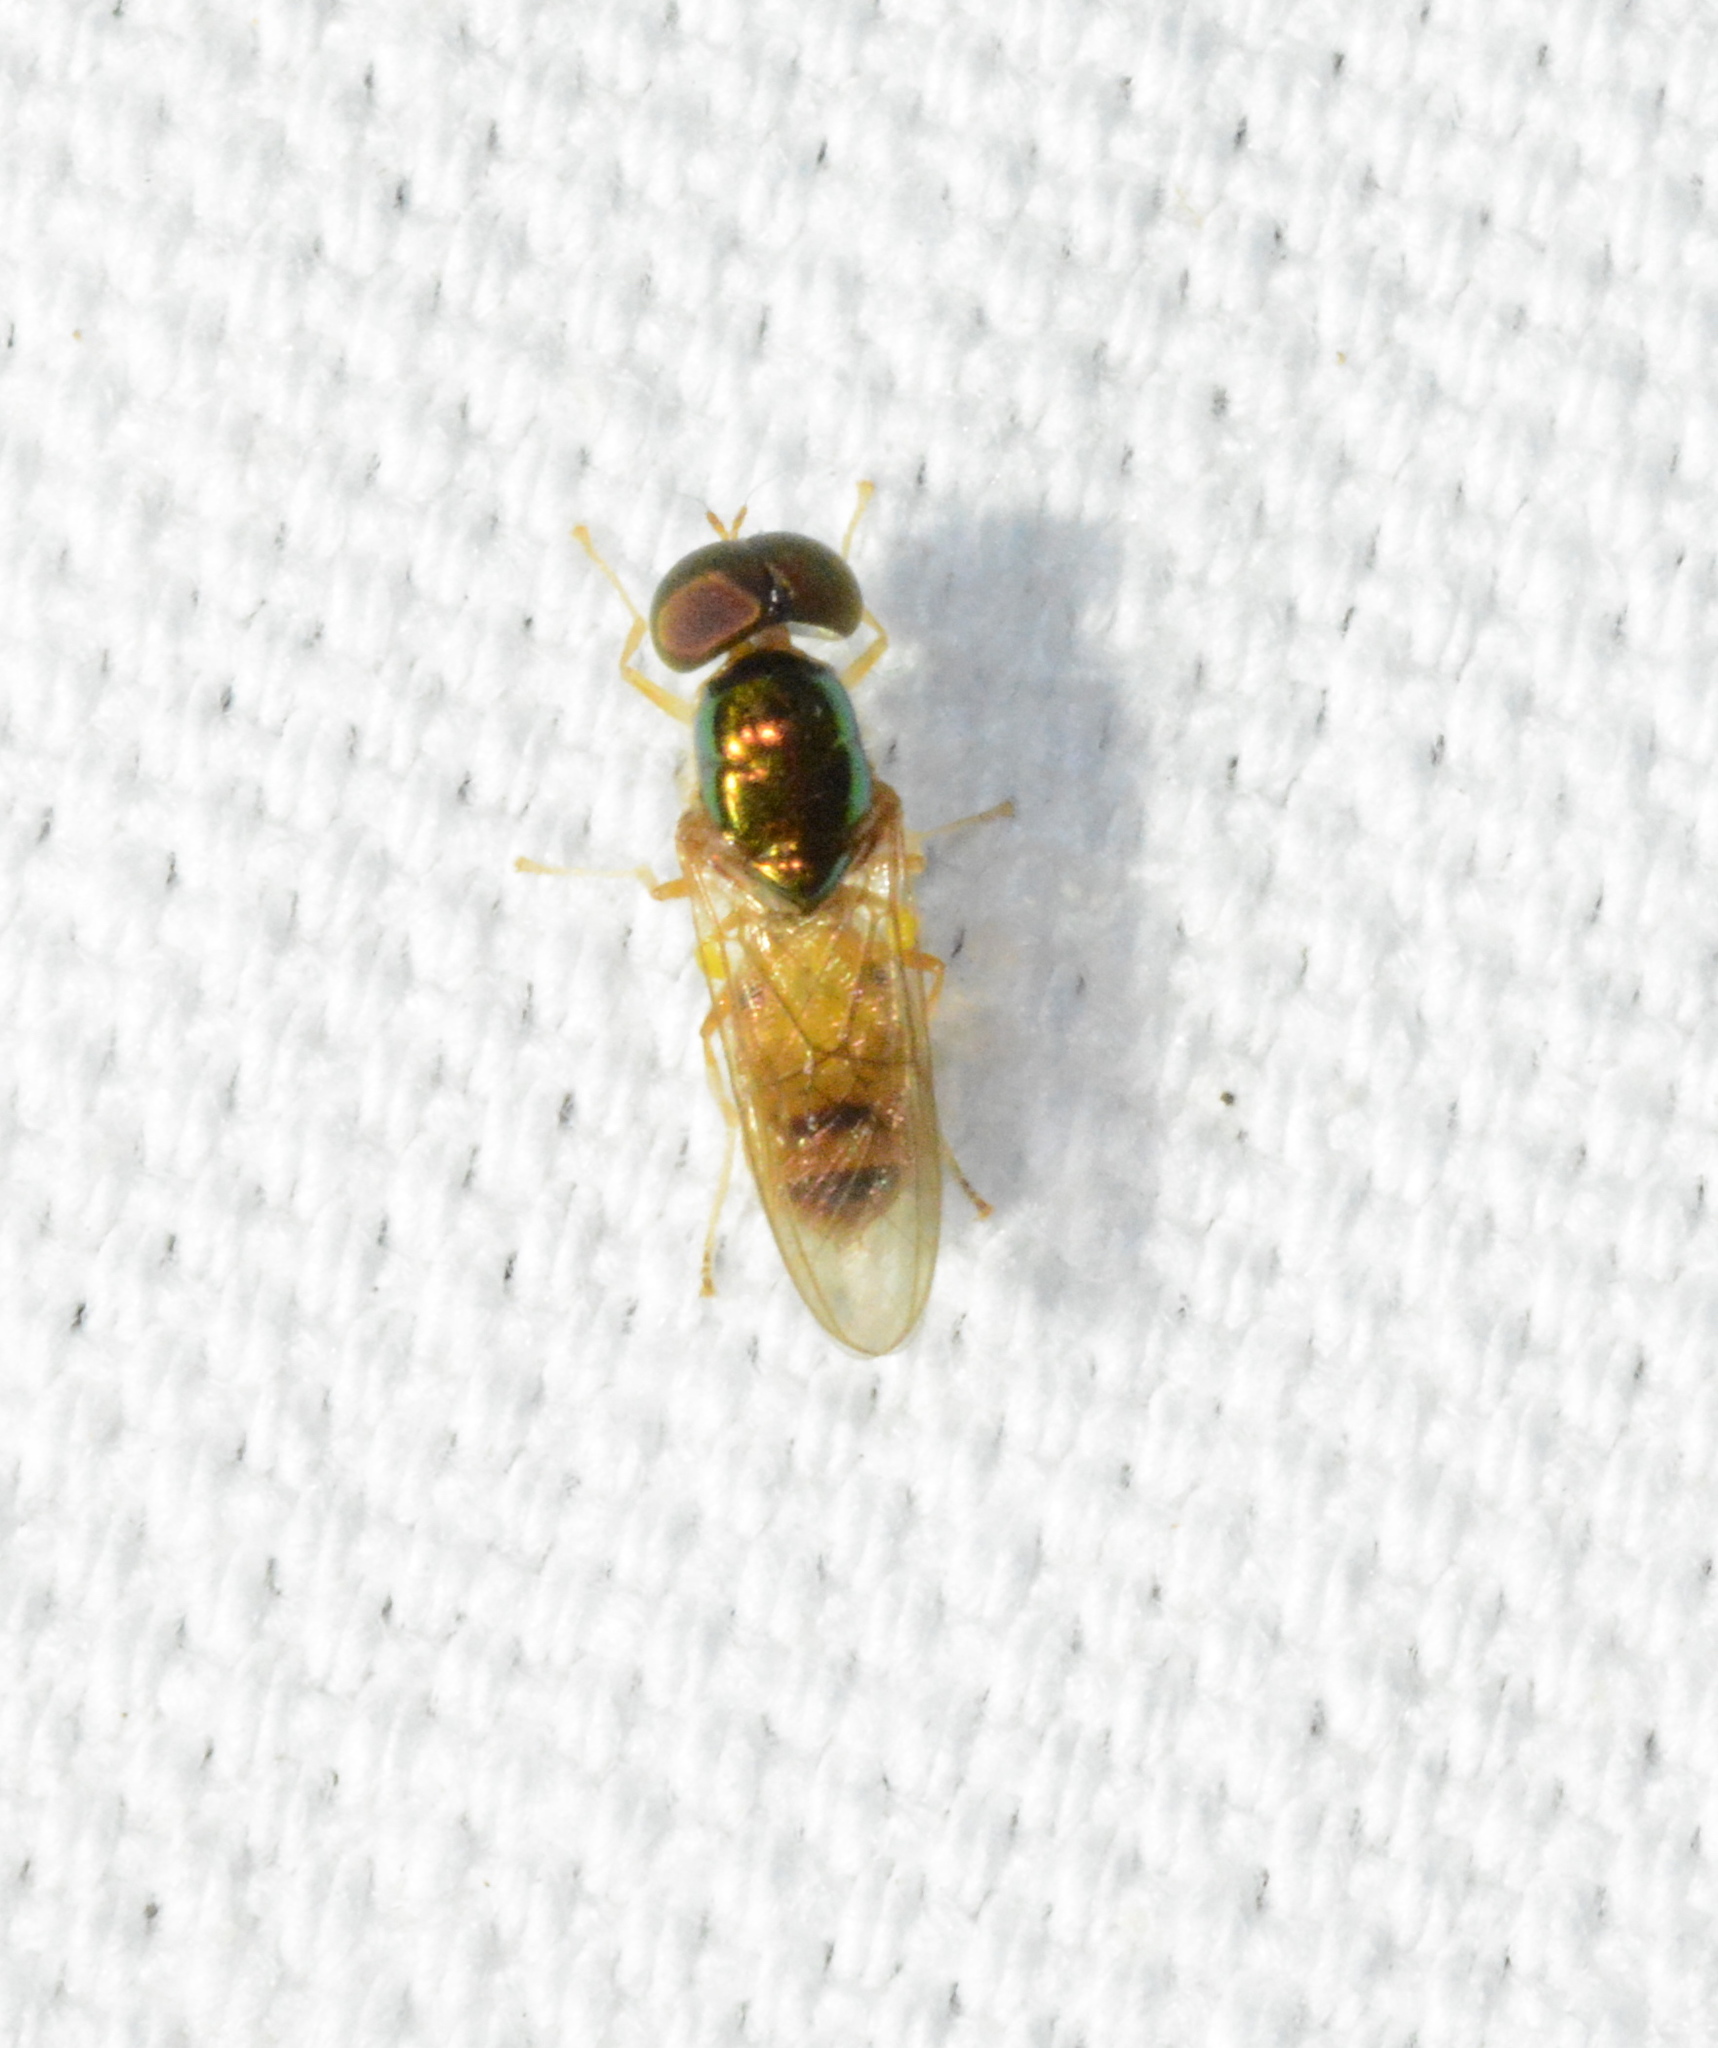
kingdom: Animalia
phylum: Arthropoda
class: Insecta
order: Diptera
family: Stratiomyidae
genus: Microchrysa
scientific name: Microchrysa flaviventris
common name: Soldier fly
